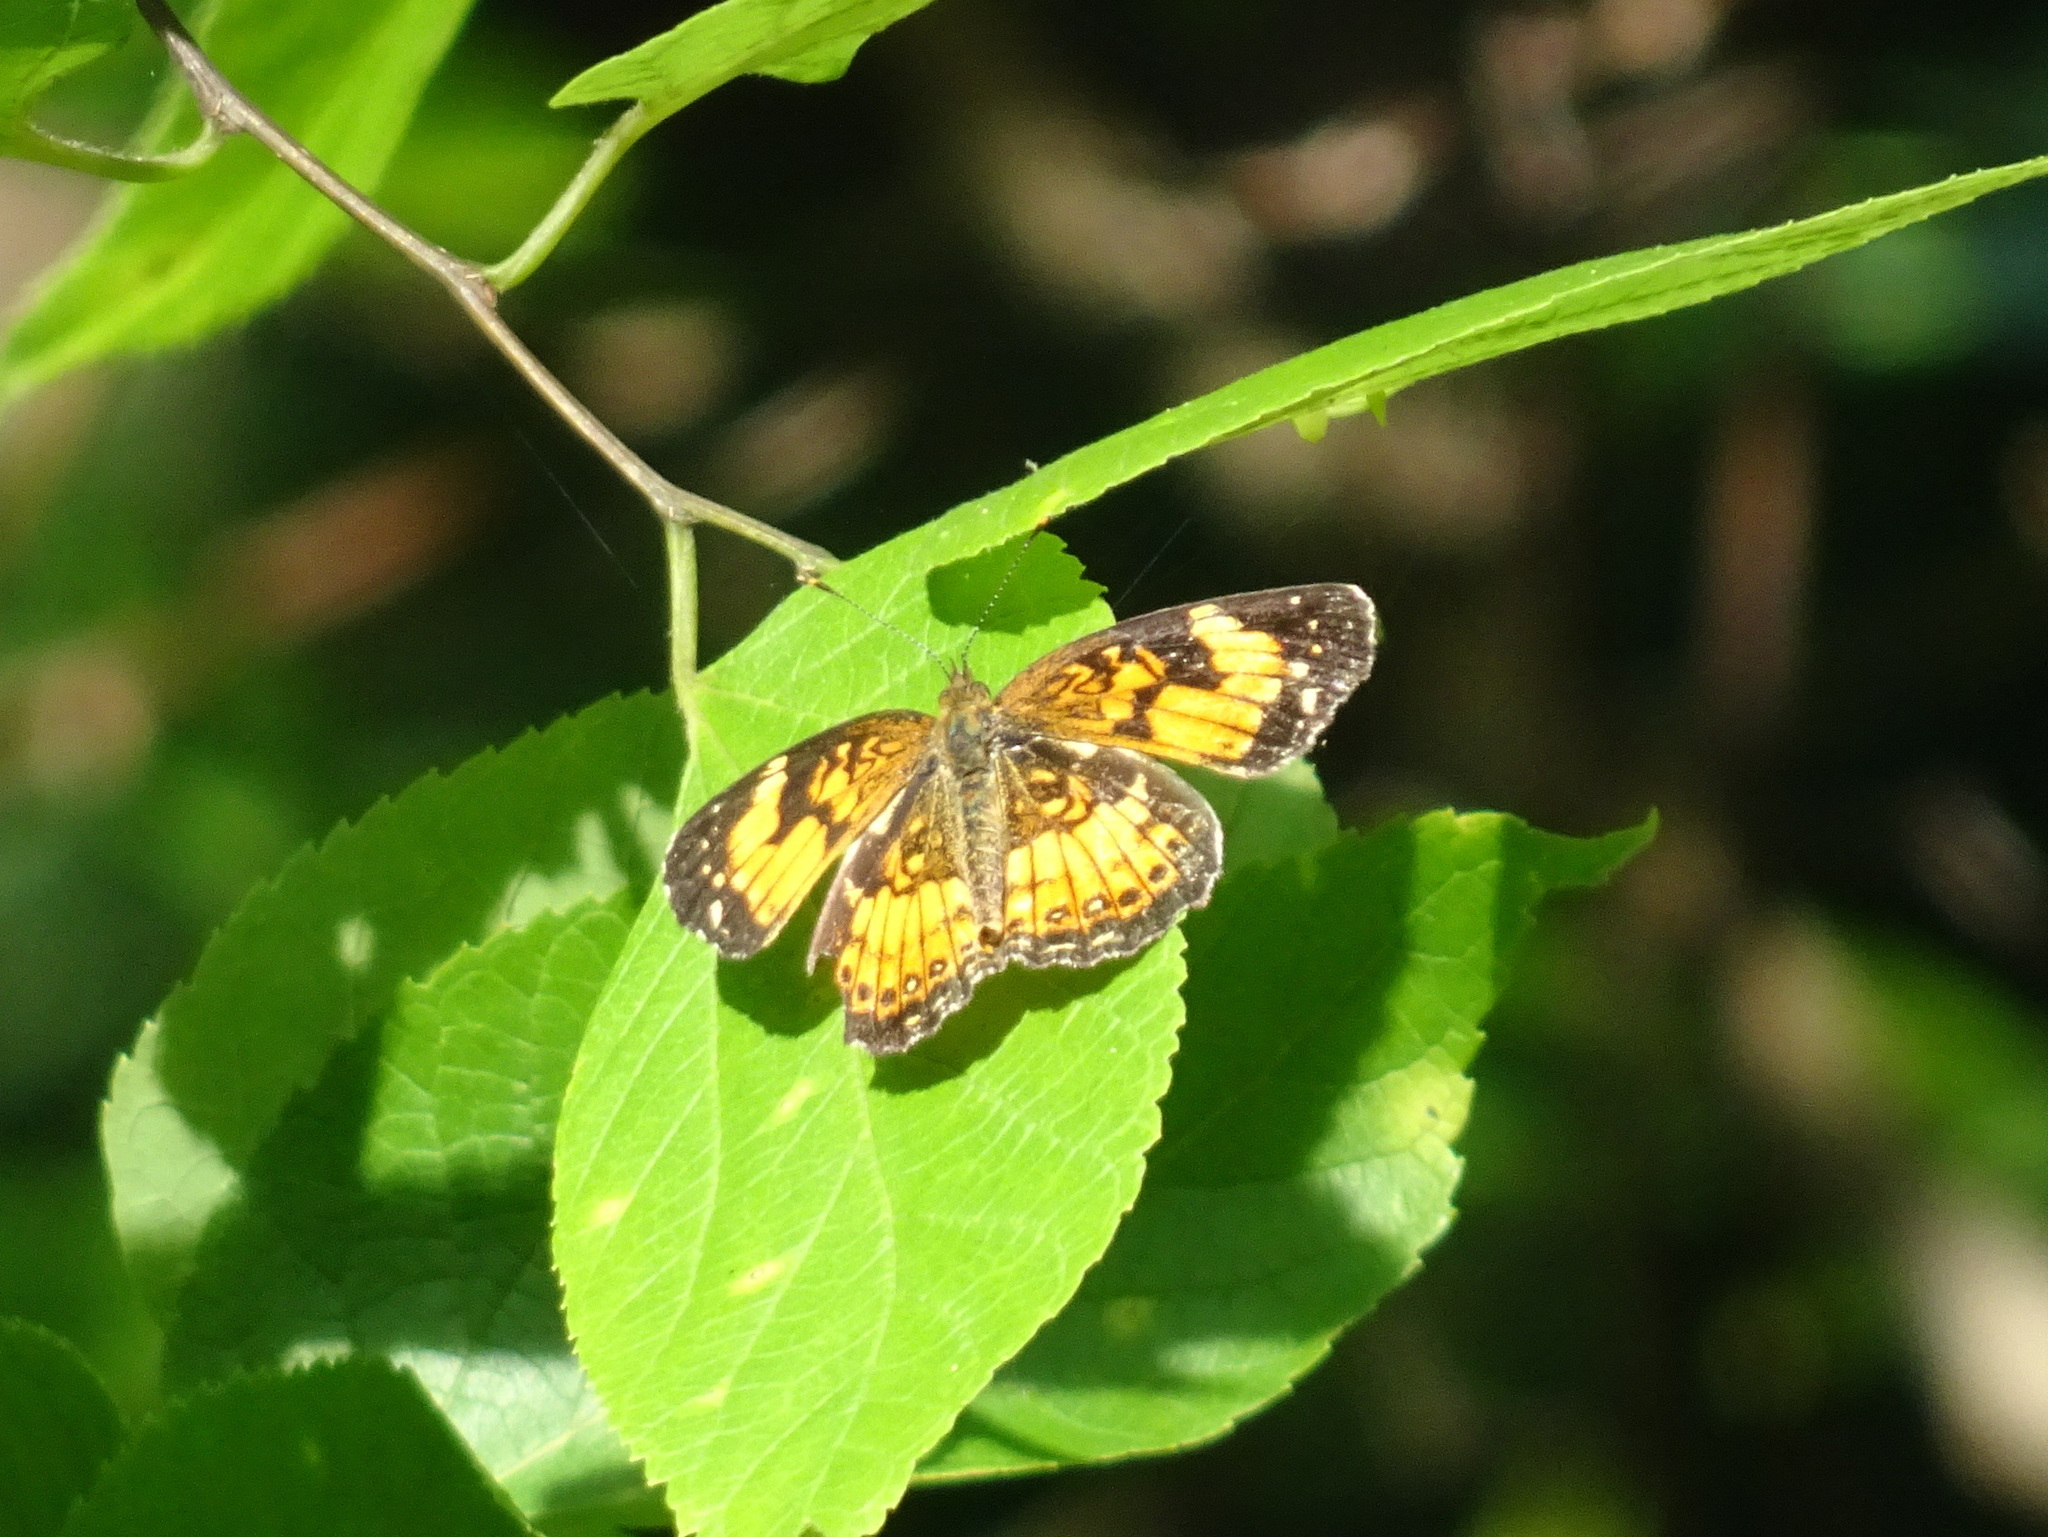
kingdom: Animalia
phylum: Arthropoda
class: Insecta
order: Lepidoptera
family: Nymphalidae
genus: Chlosyne
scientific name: Chlosyne nycteis
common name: Silvery checkerspot
